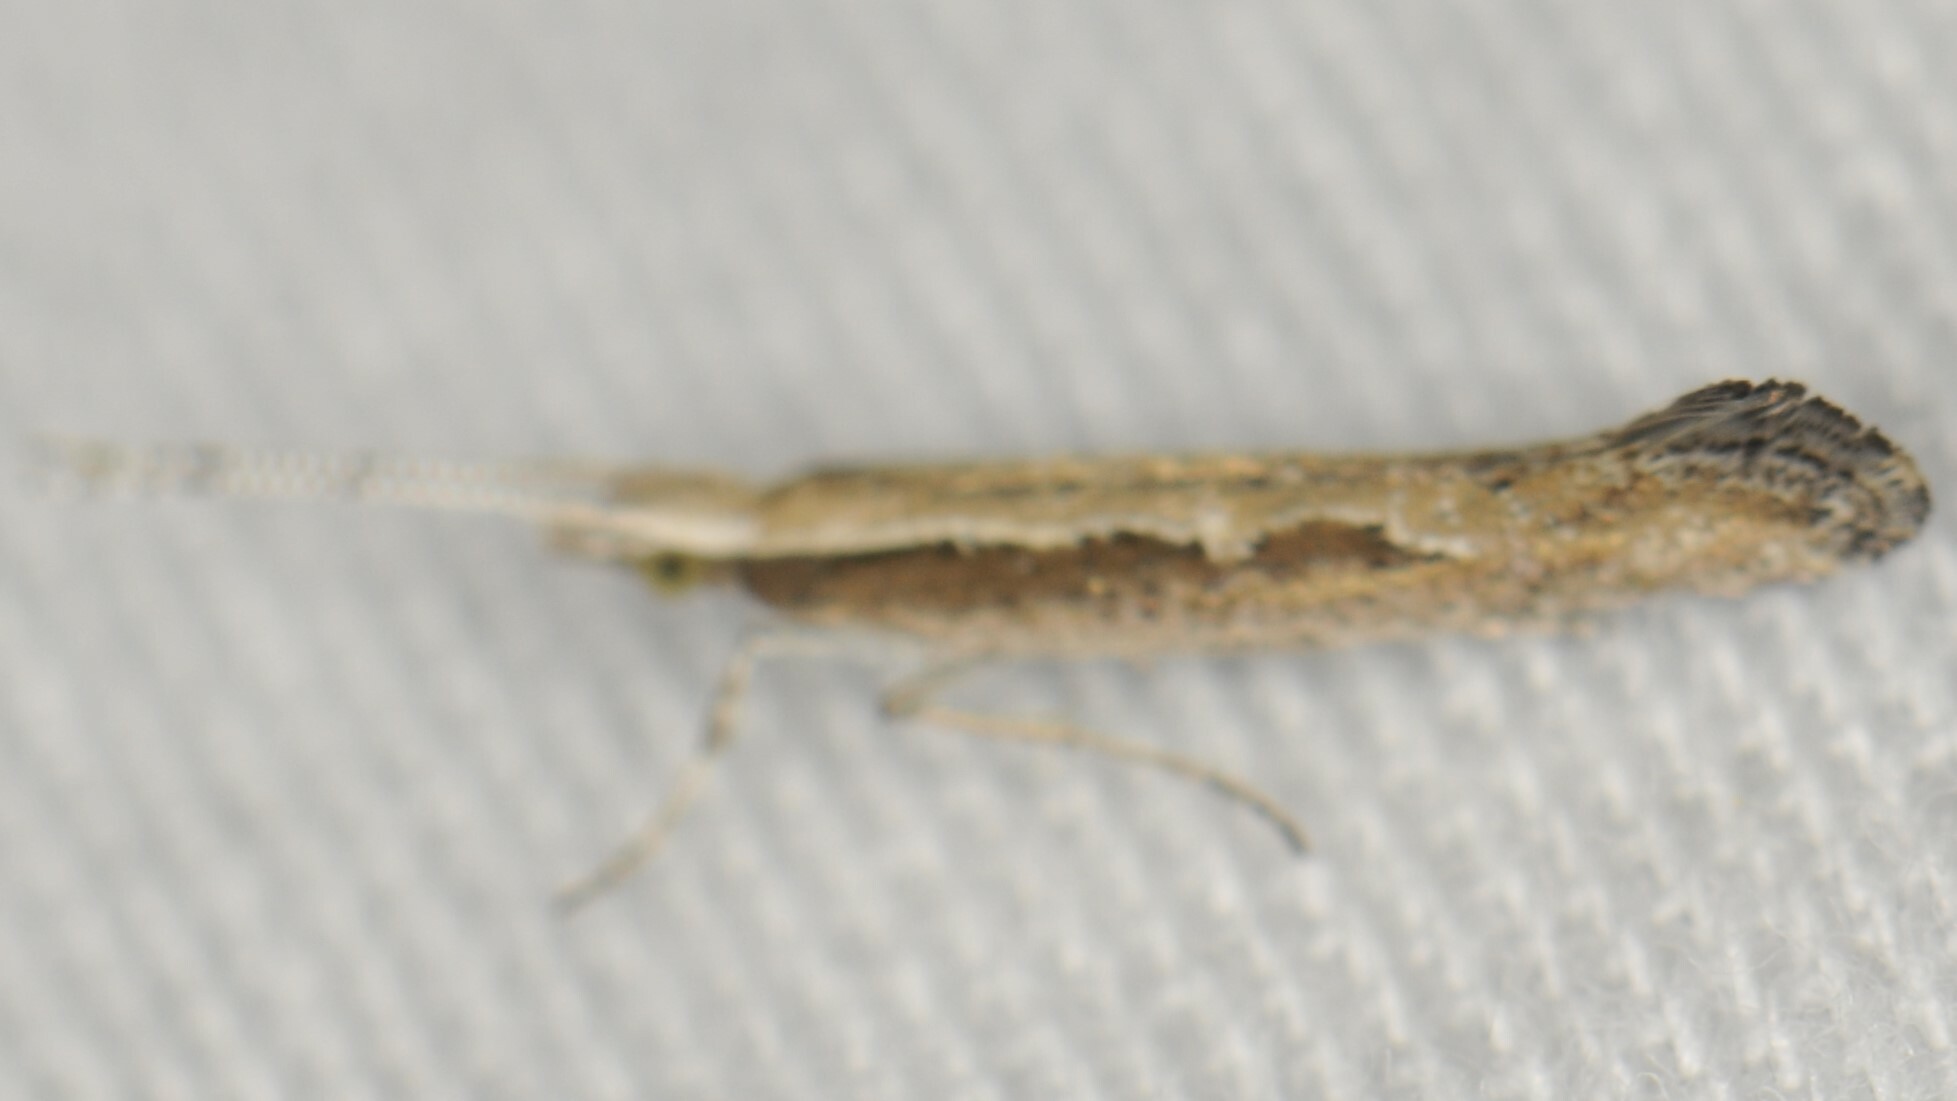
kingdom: Animalia
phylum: Arthropoda
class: Insecta
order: Lepidoptera
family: Plutellidae
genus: Plutella
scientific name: Plutella xylostella
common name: Diamond-back moth
